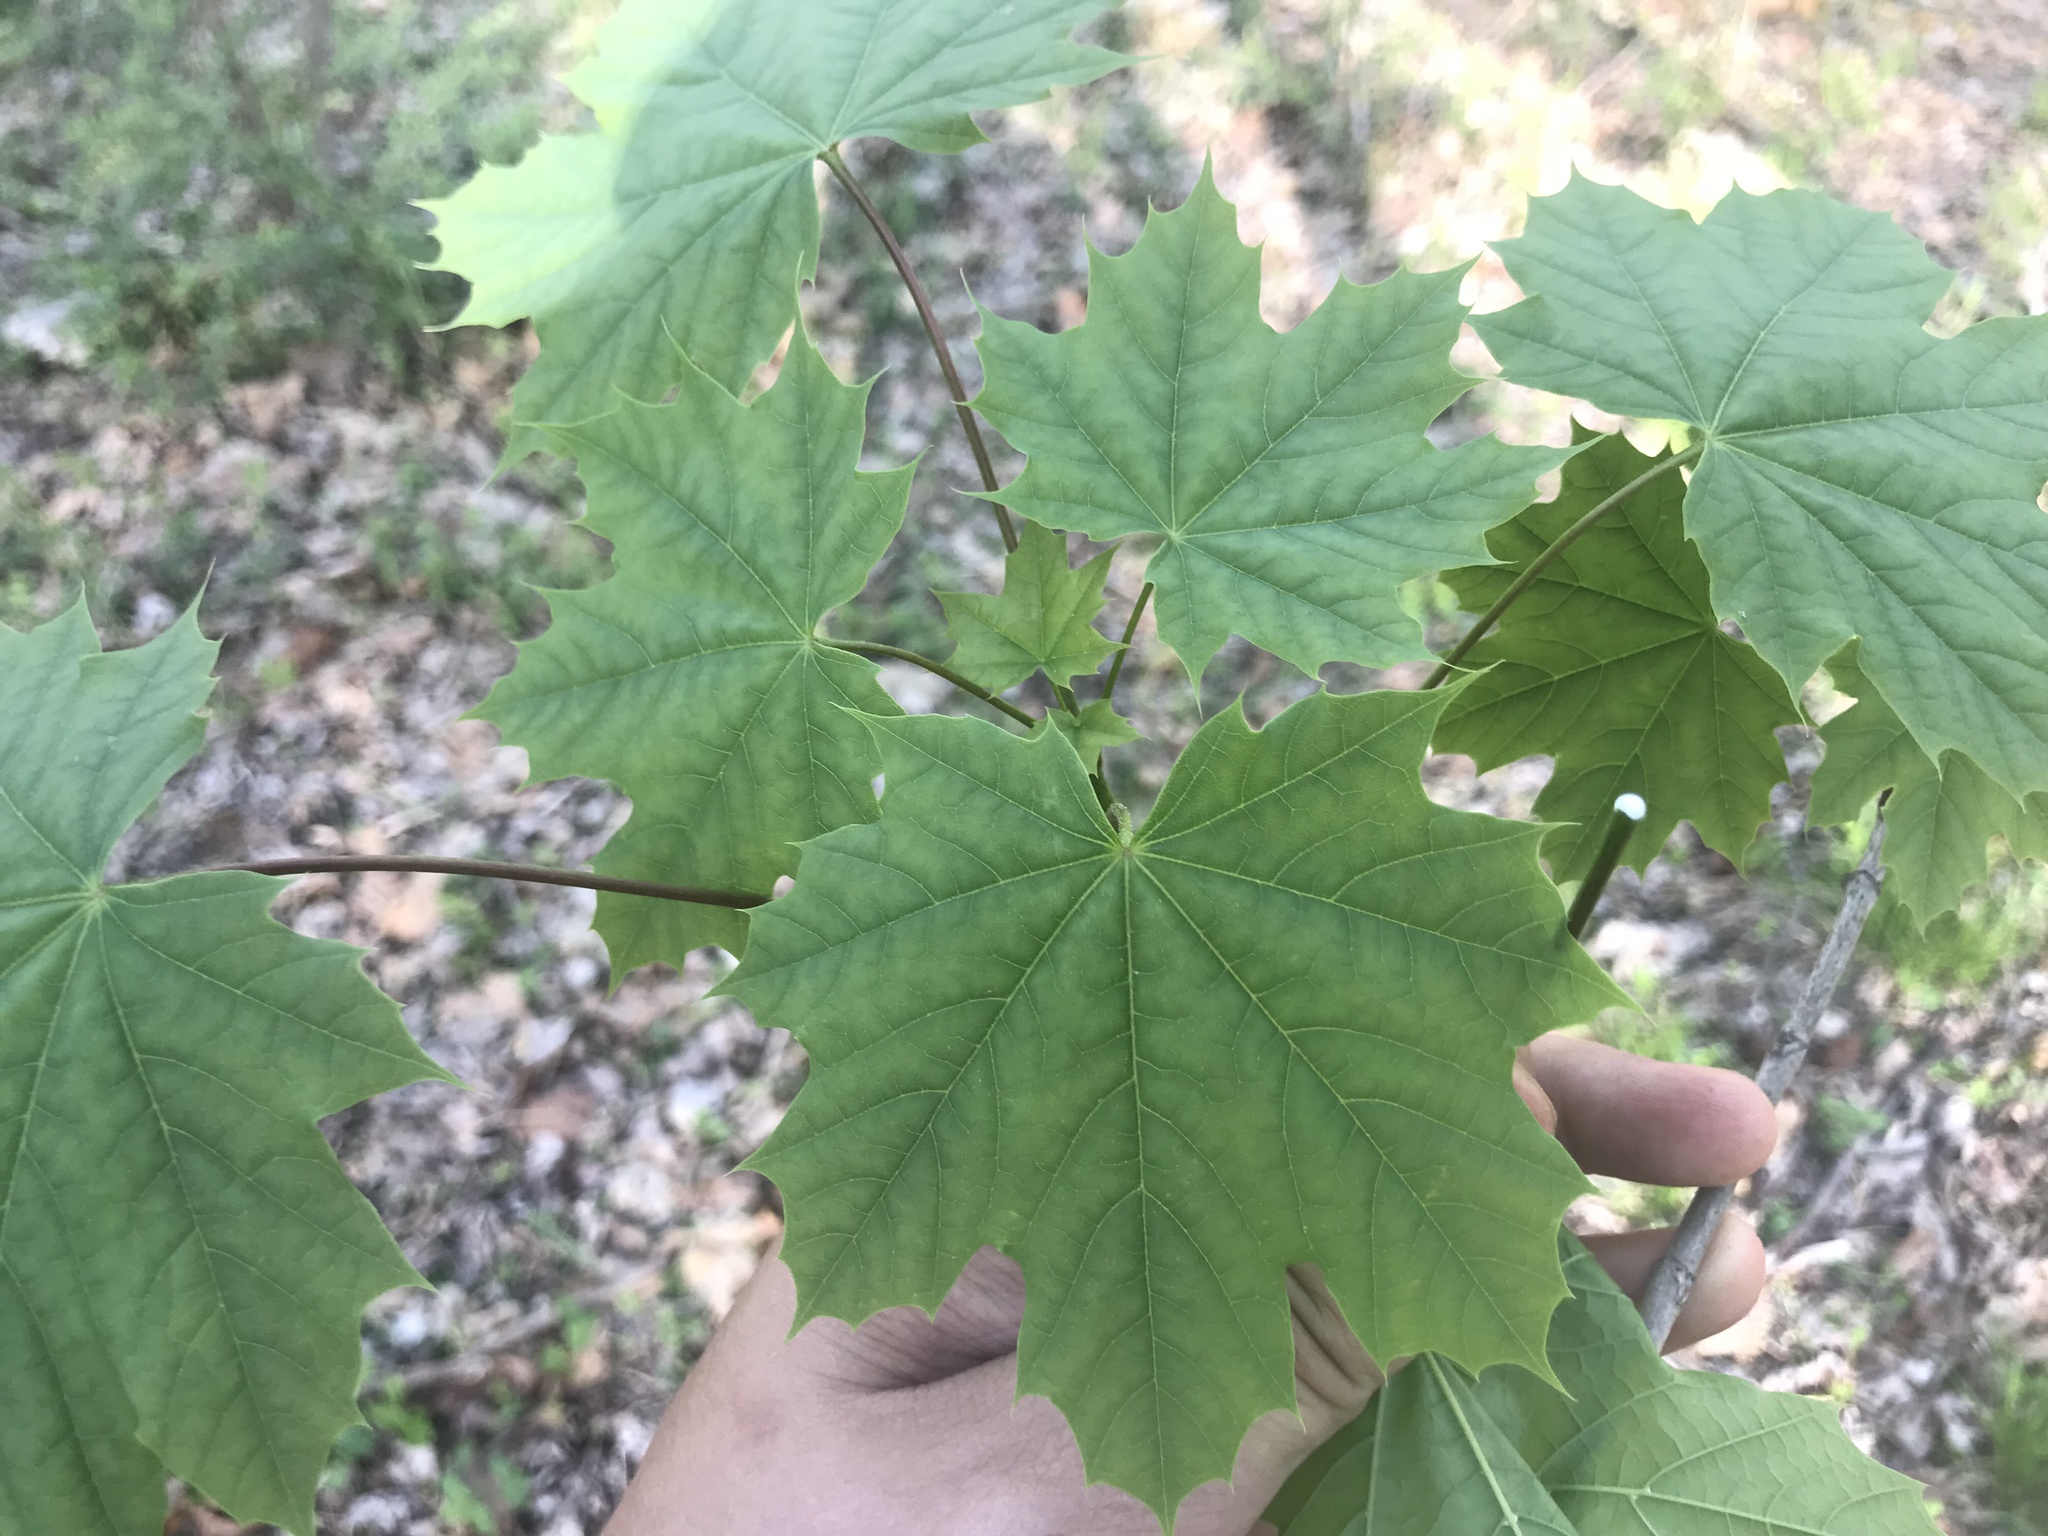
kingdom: Plantae
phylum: Tracheophyta
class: Magnoliopsida
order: Sapindales
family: Sapindaceae
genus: Acer
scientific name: Acer platanoides
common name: Norway maple
